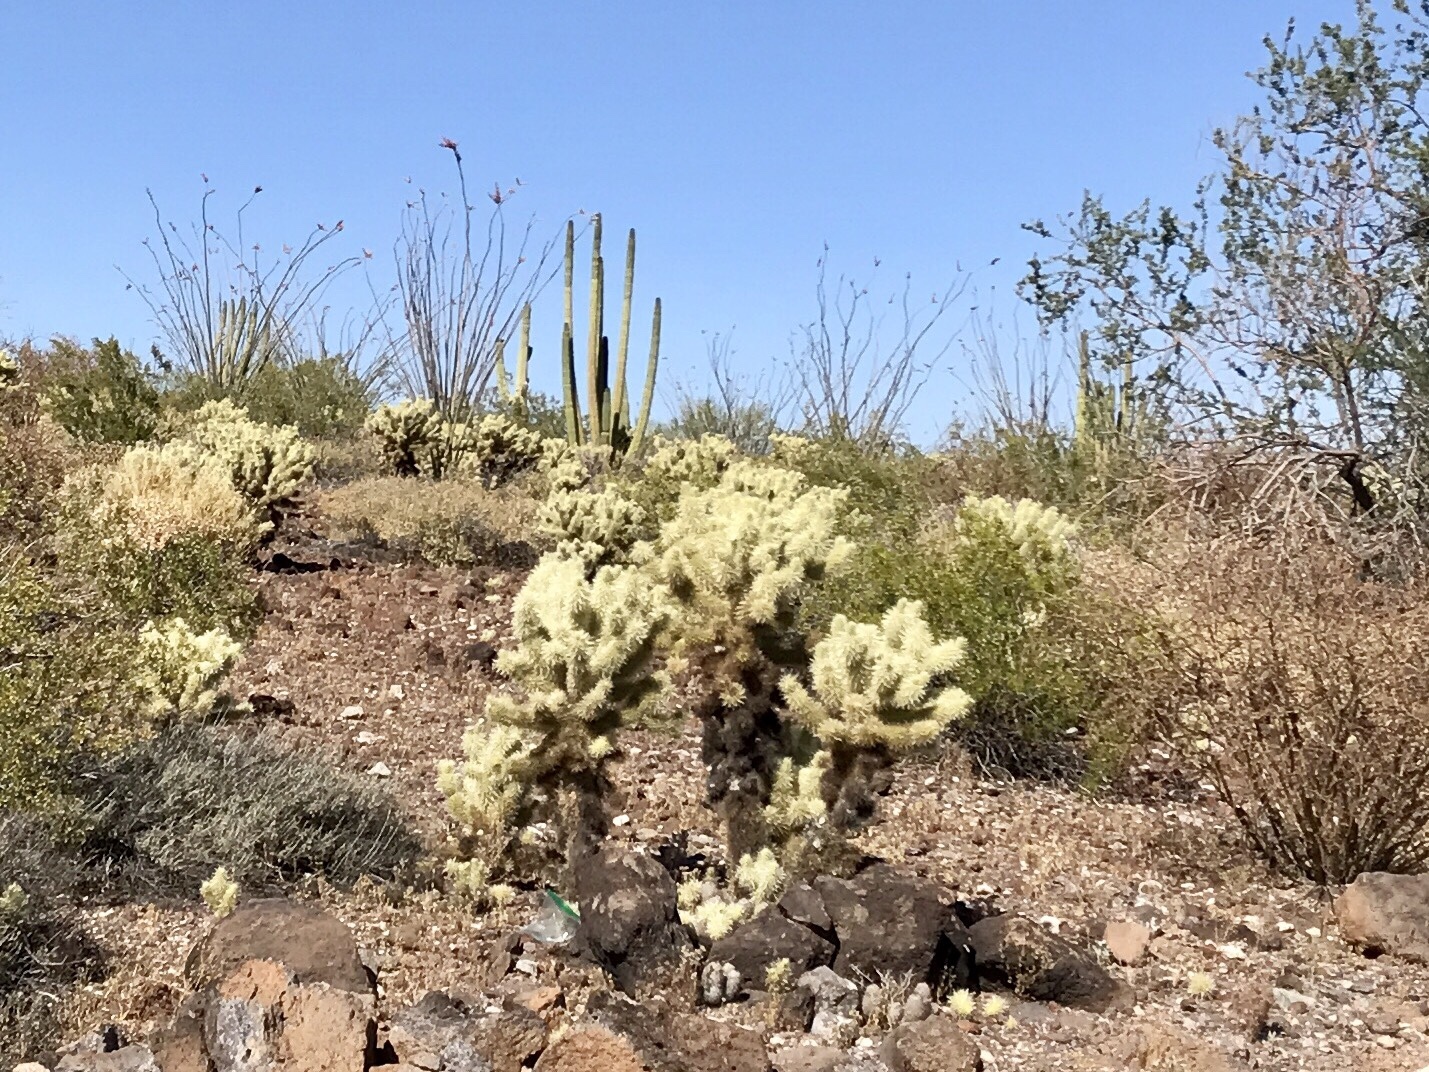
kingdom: Plantae
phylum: Tracheophyta
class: Magnoliopsida
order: Caryophyllales
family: Cactaceae
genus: Cylindropuntia
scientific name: Cylindropuntia fosbergii
